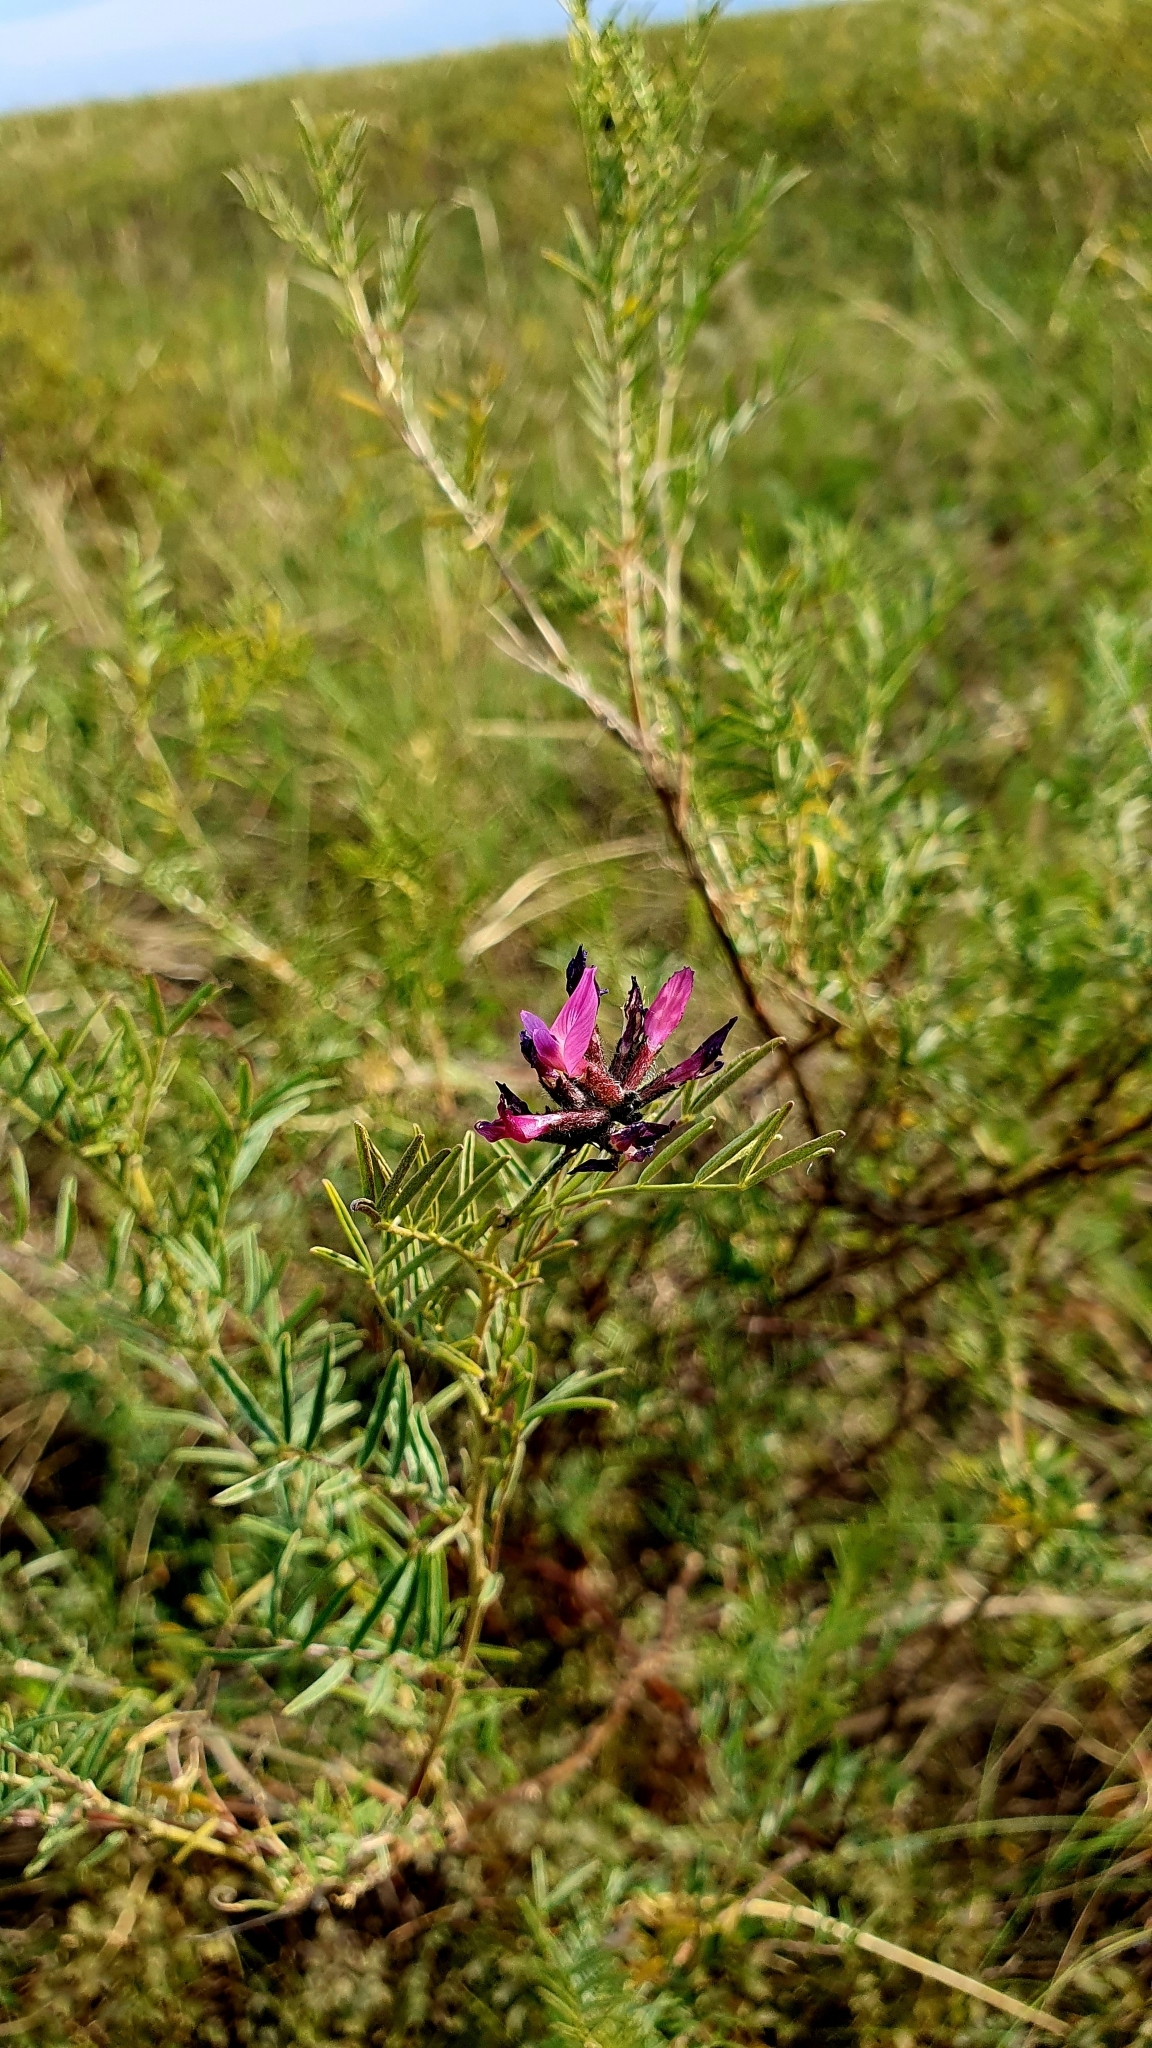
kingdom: Plantae
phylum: Tracheophyta
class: Magnoliopsida
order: Fabales
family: Fabaceae
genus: Astragalus
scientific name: Astragalus cornutus
